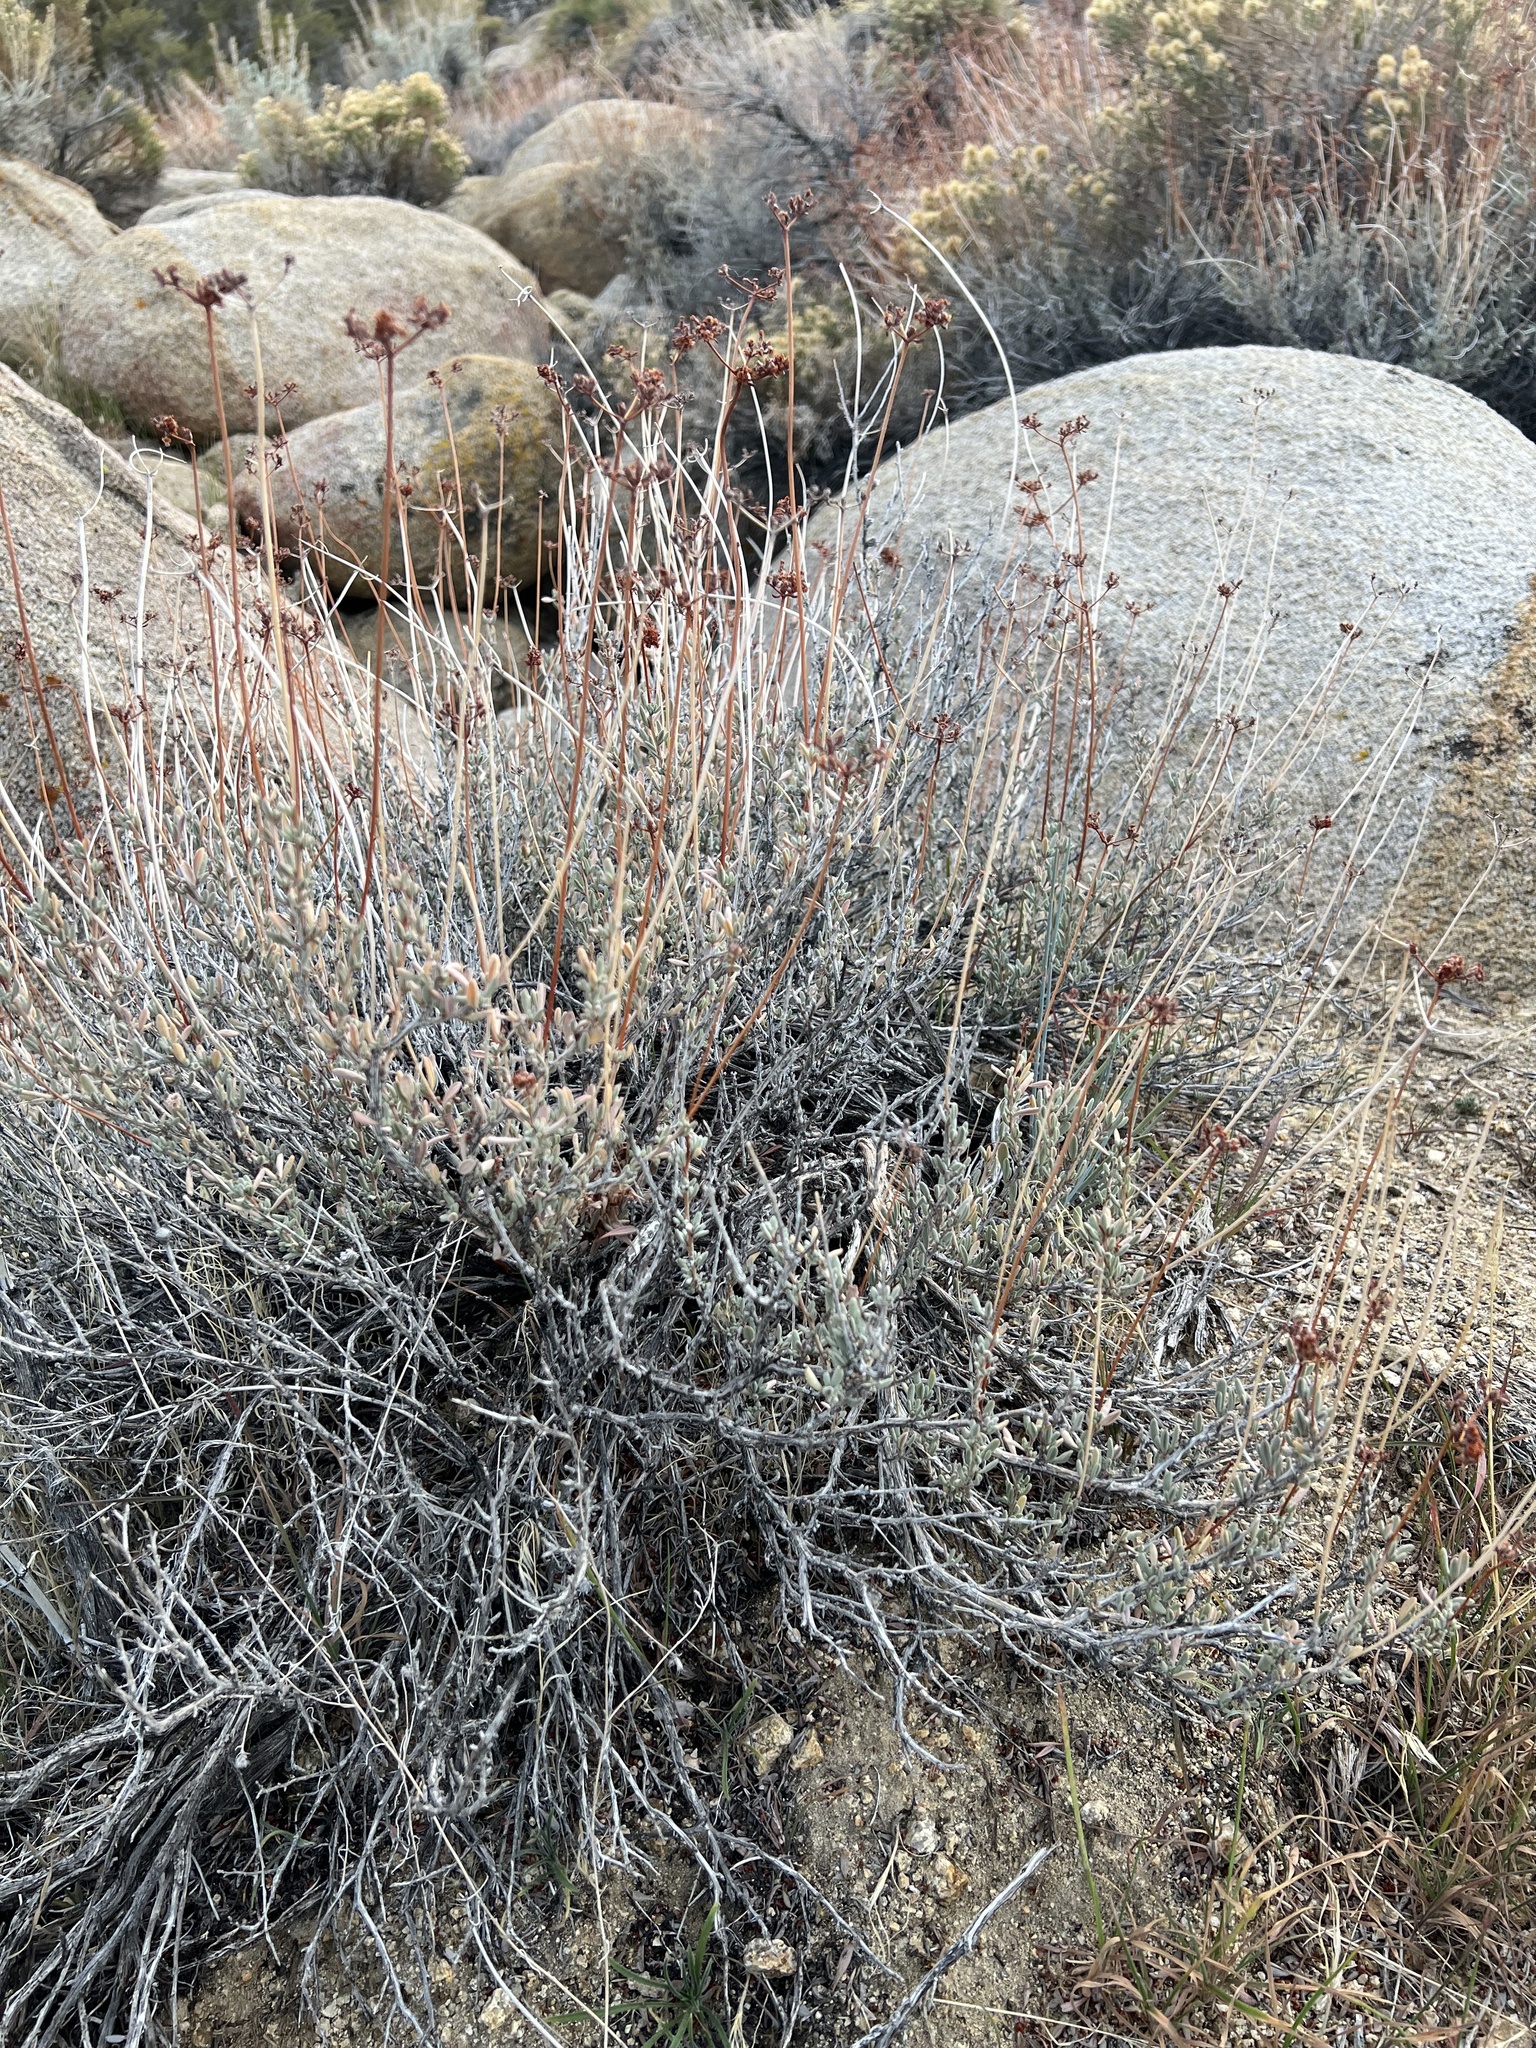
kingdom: Plantae
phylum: Tracheophyta
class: Magnoliopsida
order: Caryophyllales
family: Polygonaceae
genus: Eriogonum
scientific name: Eriogonum fasciculatum
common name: California wild buckwheat
